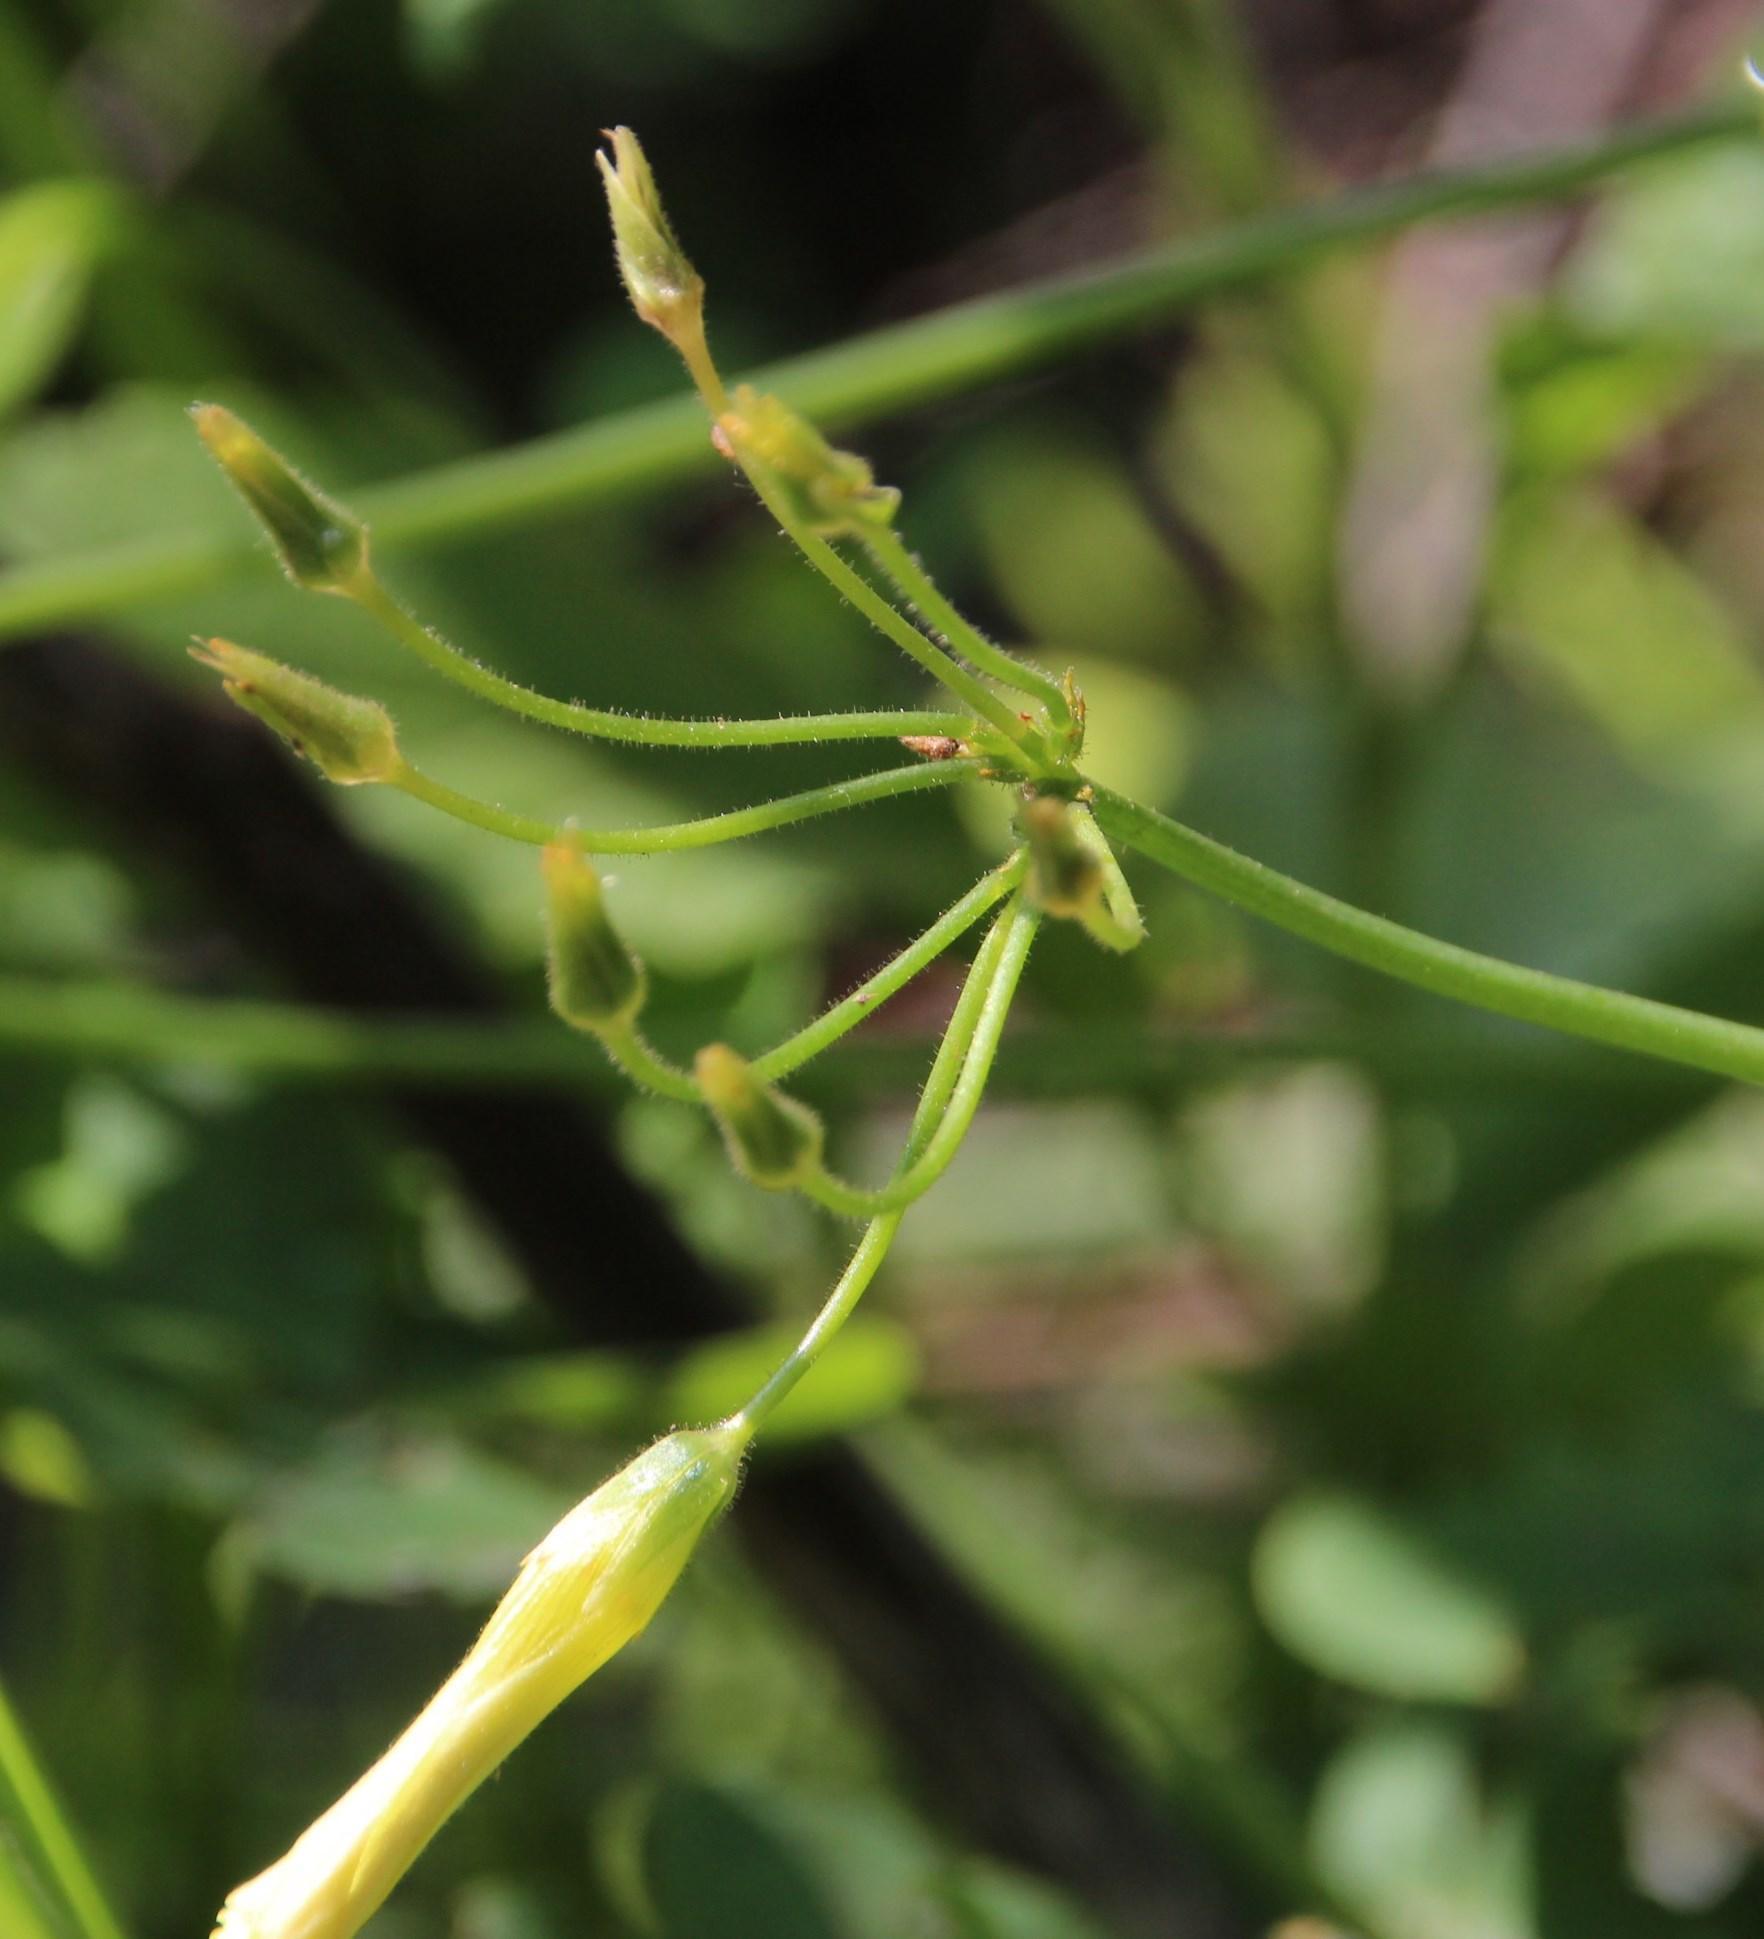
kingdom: Plantae
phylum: Tracheophyta
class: Magnoliopsida
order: Oxalidales
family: Oxalidaceae
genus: Oxalis
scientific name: Oxalis pes-caprae
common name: Bermuda-buttercup
